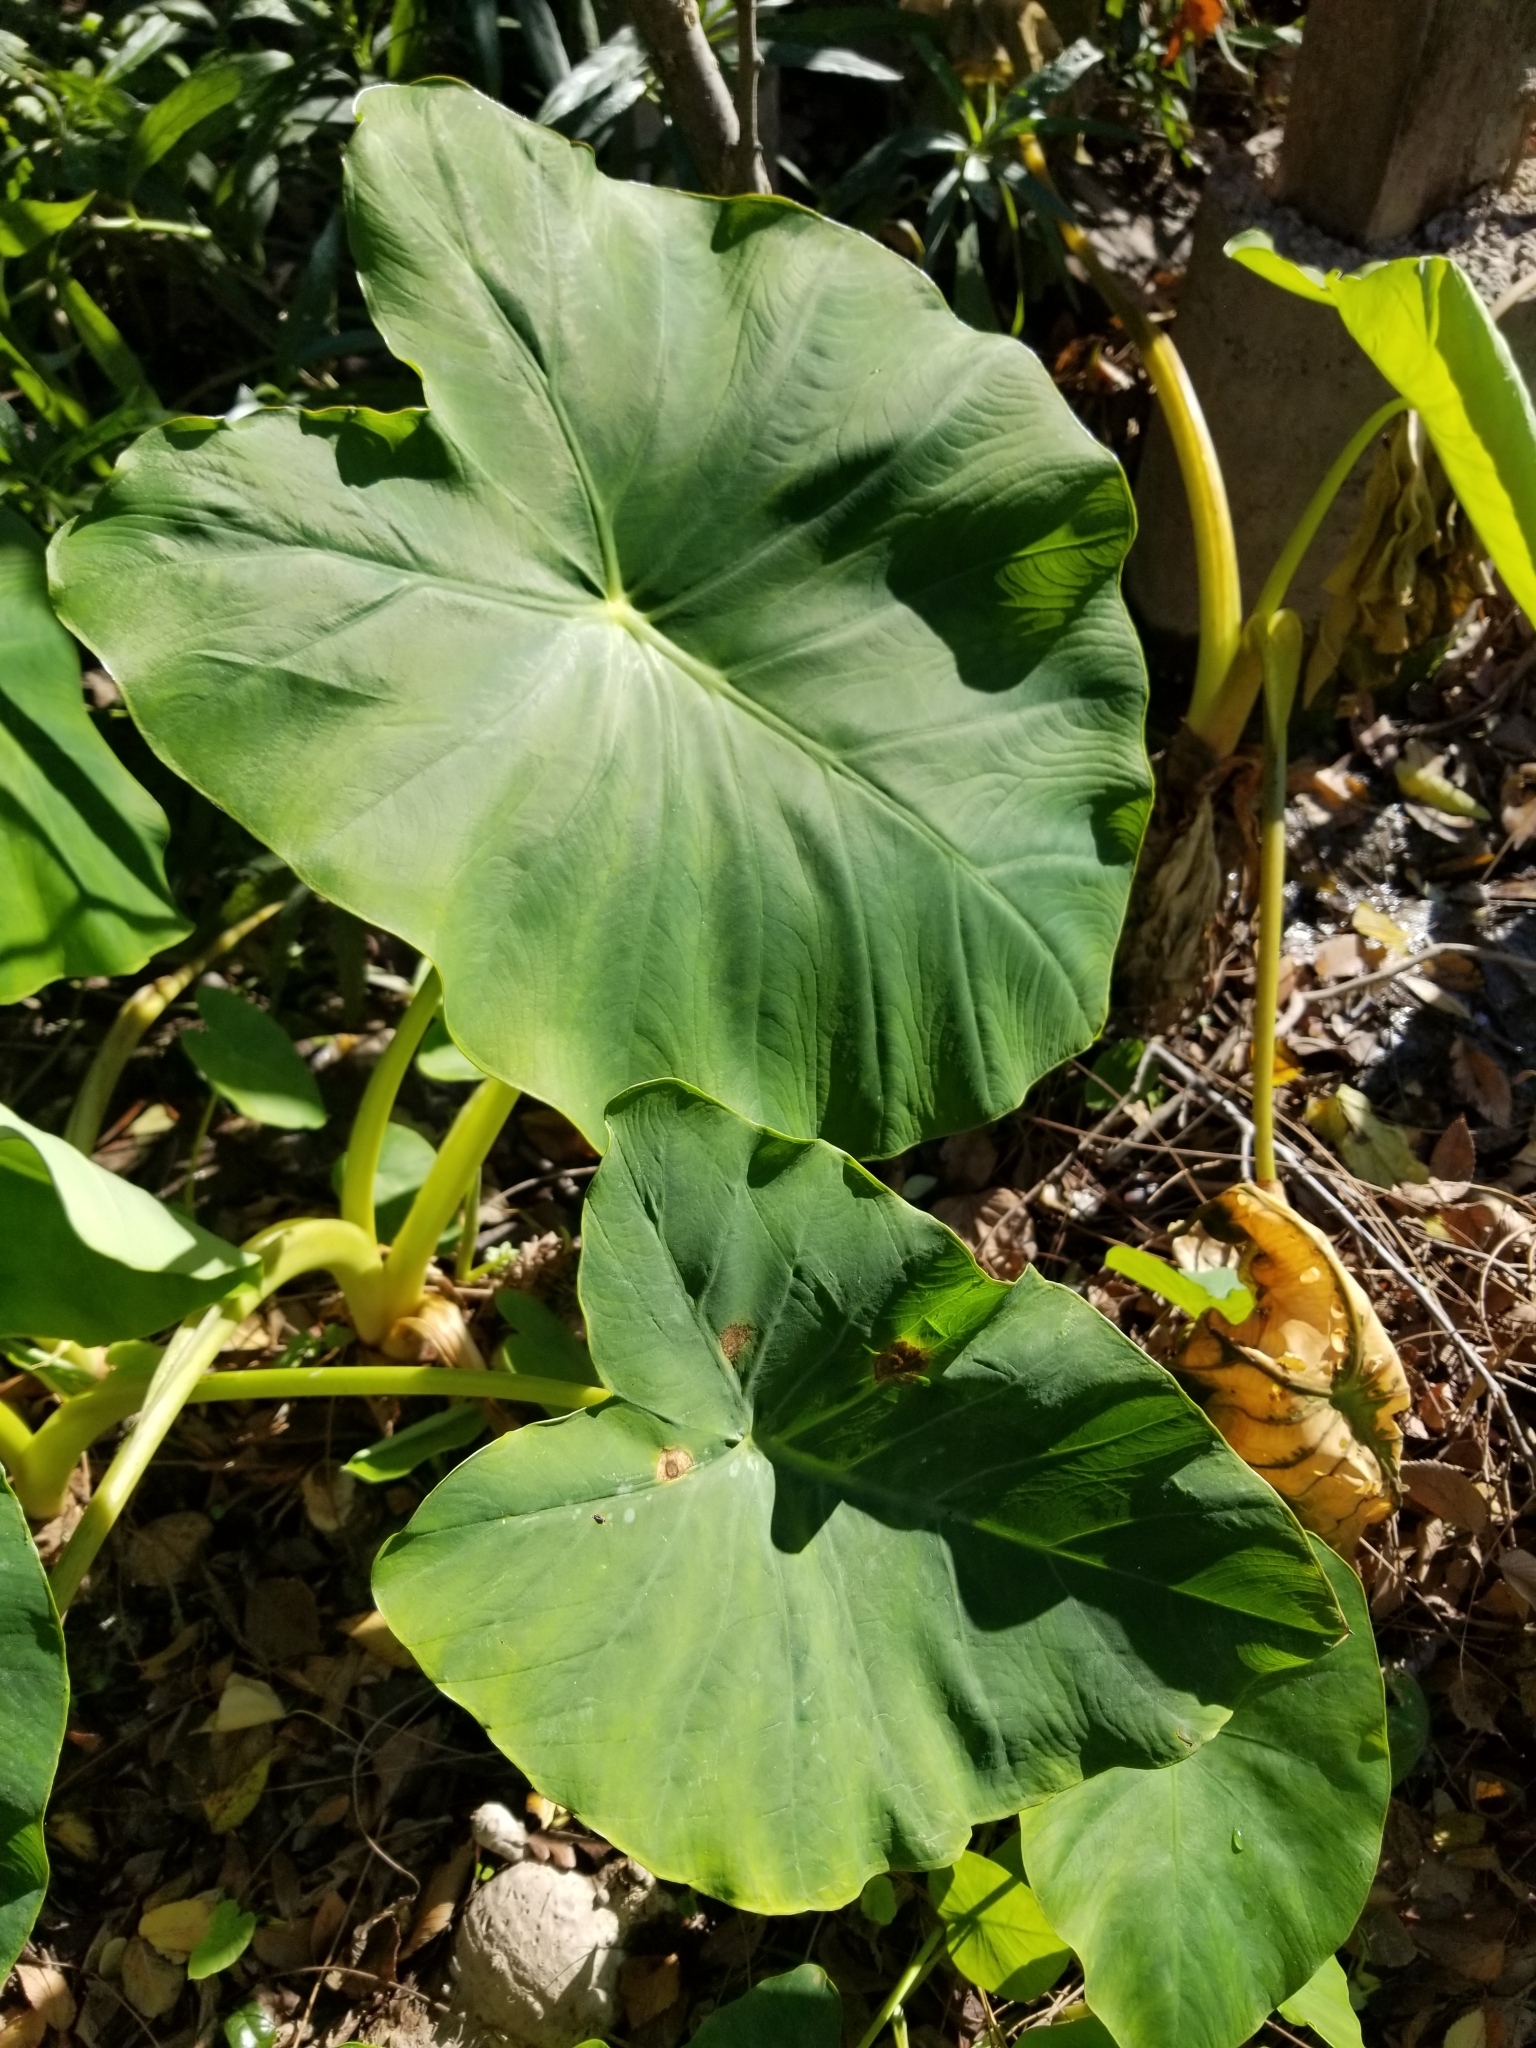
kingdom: Plantae
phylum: Tracheophyta
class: Liliopsida
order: Alismatales
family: Araceae
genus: Colocasia
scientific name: Colocasia esculenta
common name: Taro
